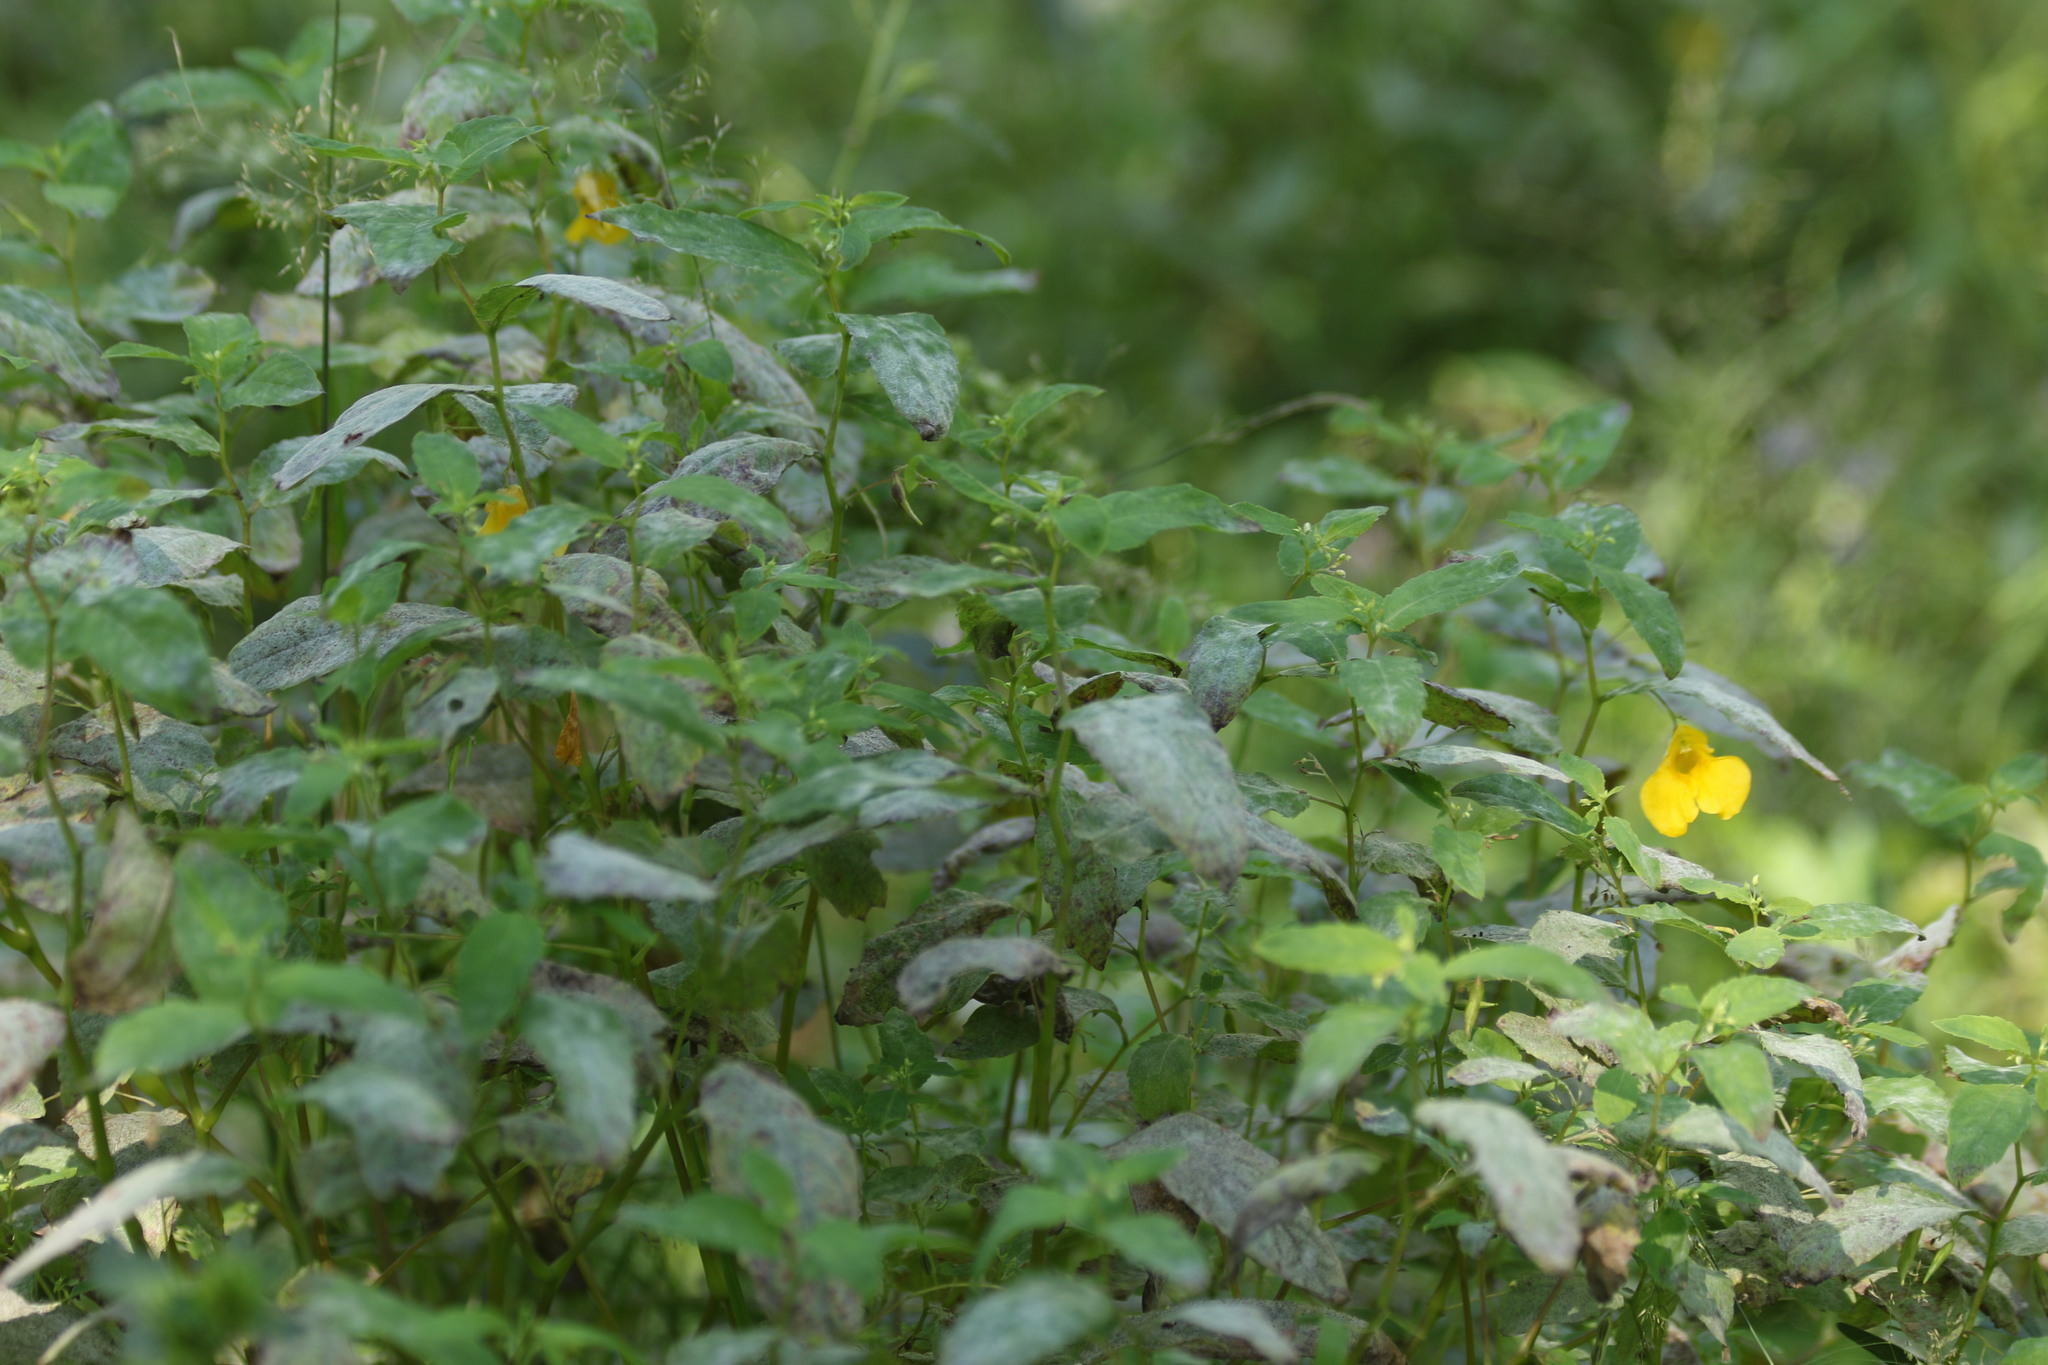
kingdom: Plantae
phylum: Tracheophyta
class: Magnoliopsida
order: Ericales
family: Balsaminaceae
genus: Impatiens
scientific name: Impatiens noli-tangere
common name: Touch-me-not balsam
